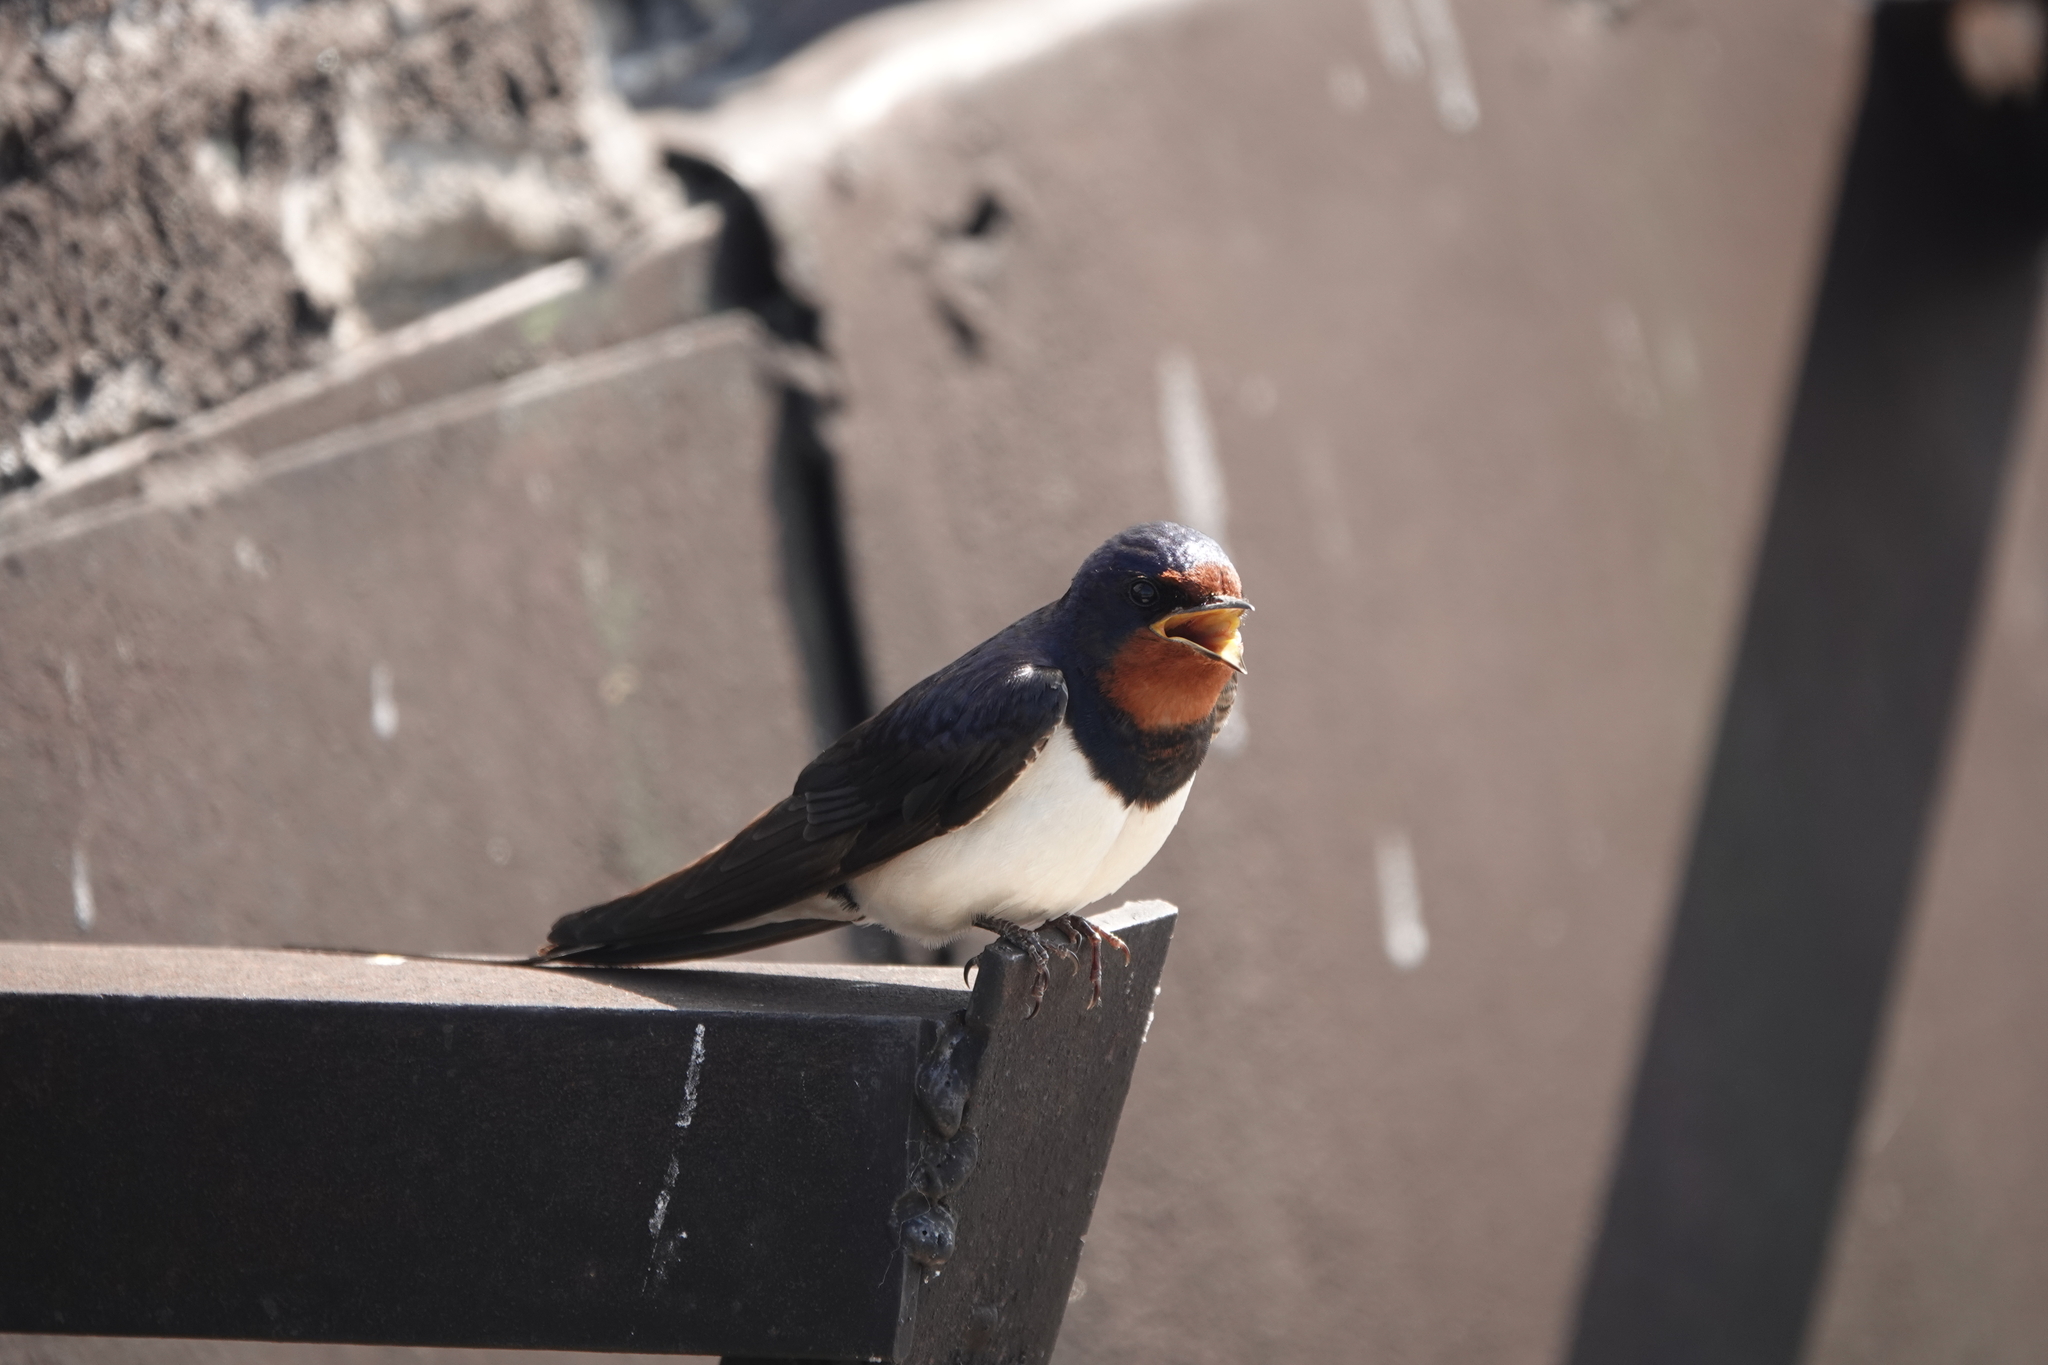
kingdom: Animalia
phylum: Chordata
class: Aves
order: Passeriformes
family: Hirundinidae
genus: Hirundo
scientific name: Hirundo rustica
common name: Barn swallow
